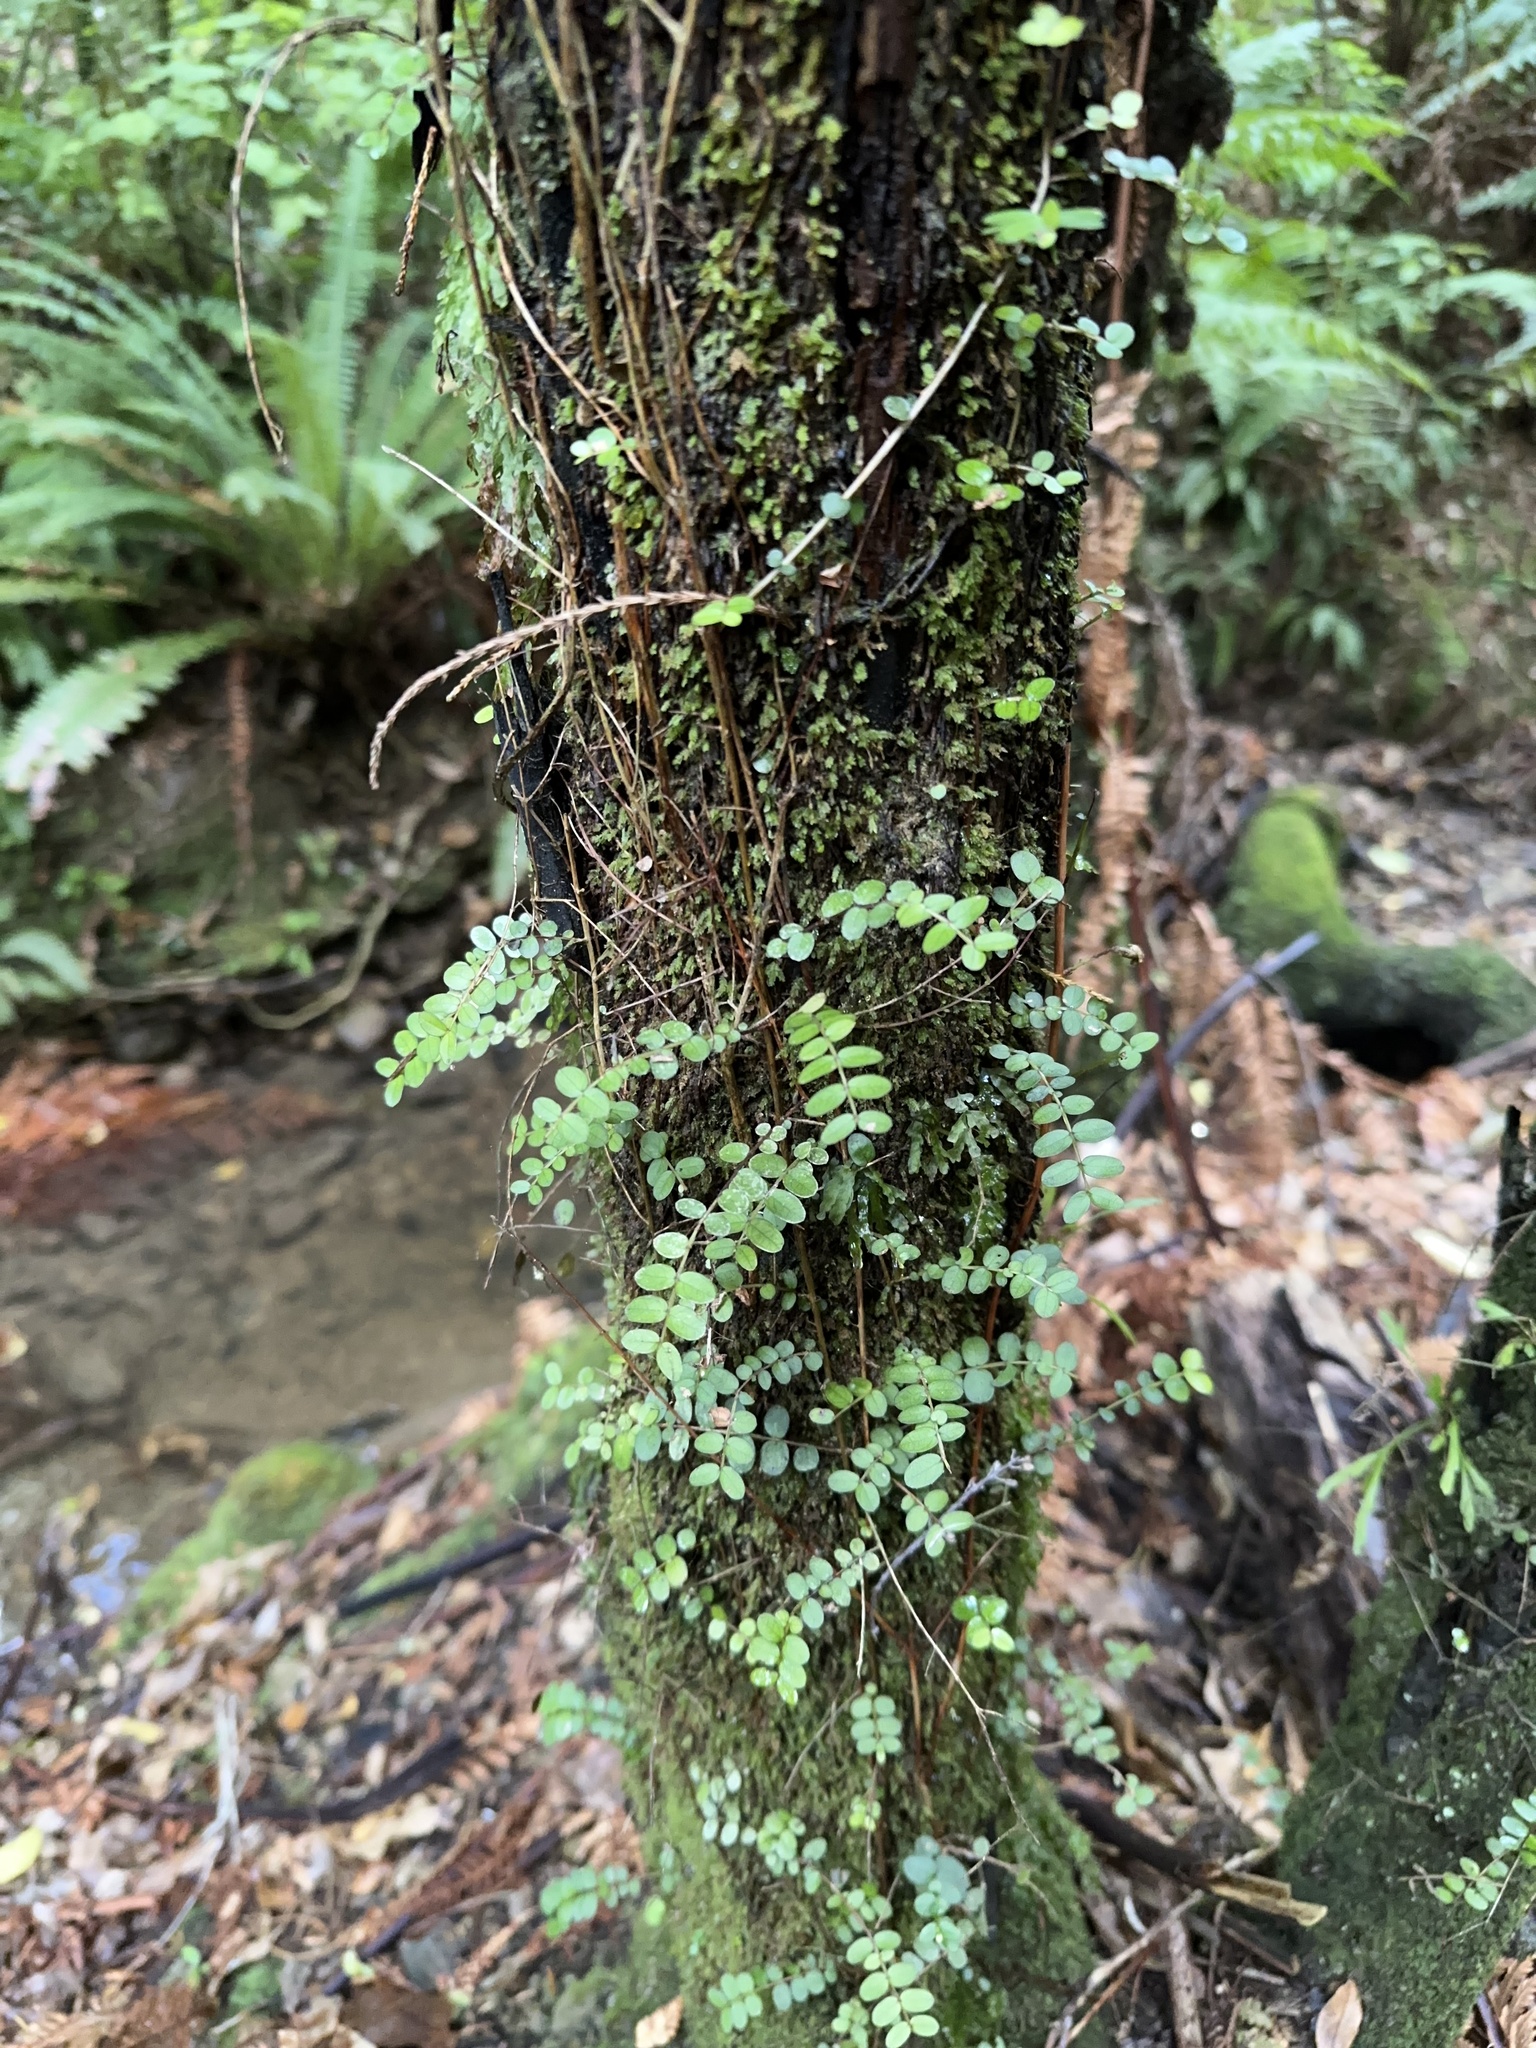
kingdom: Plantae
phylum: Tracheophyta
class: Magnoliopsida
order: Myrtales
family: Myrtaceae
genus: Metrosideros
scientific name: Metrosideros diffusa
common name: Small ratavine
